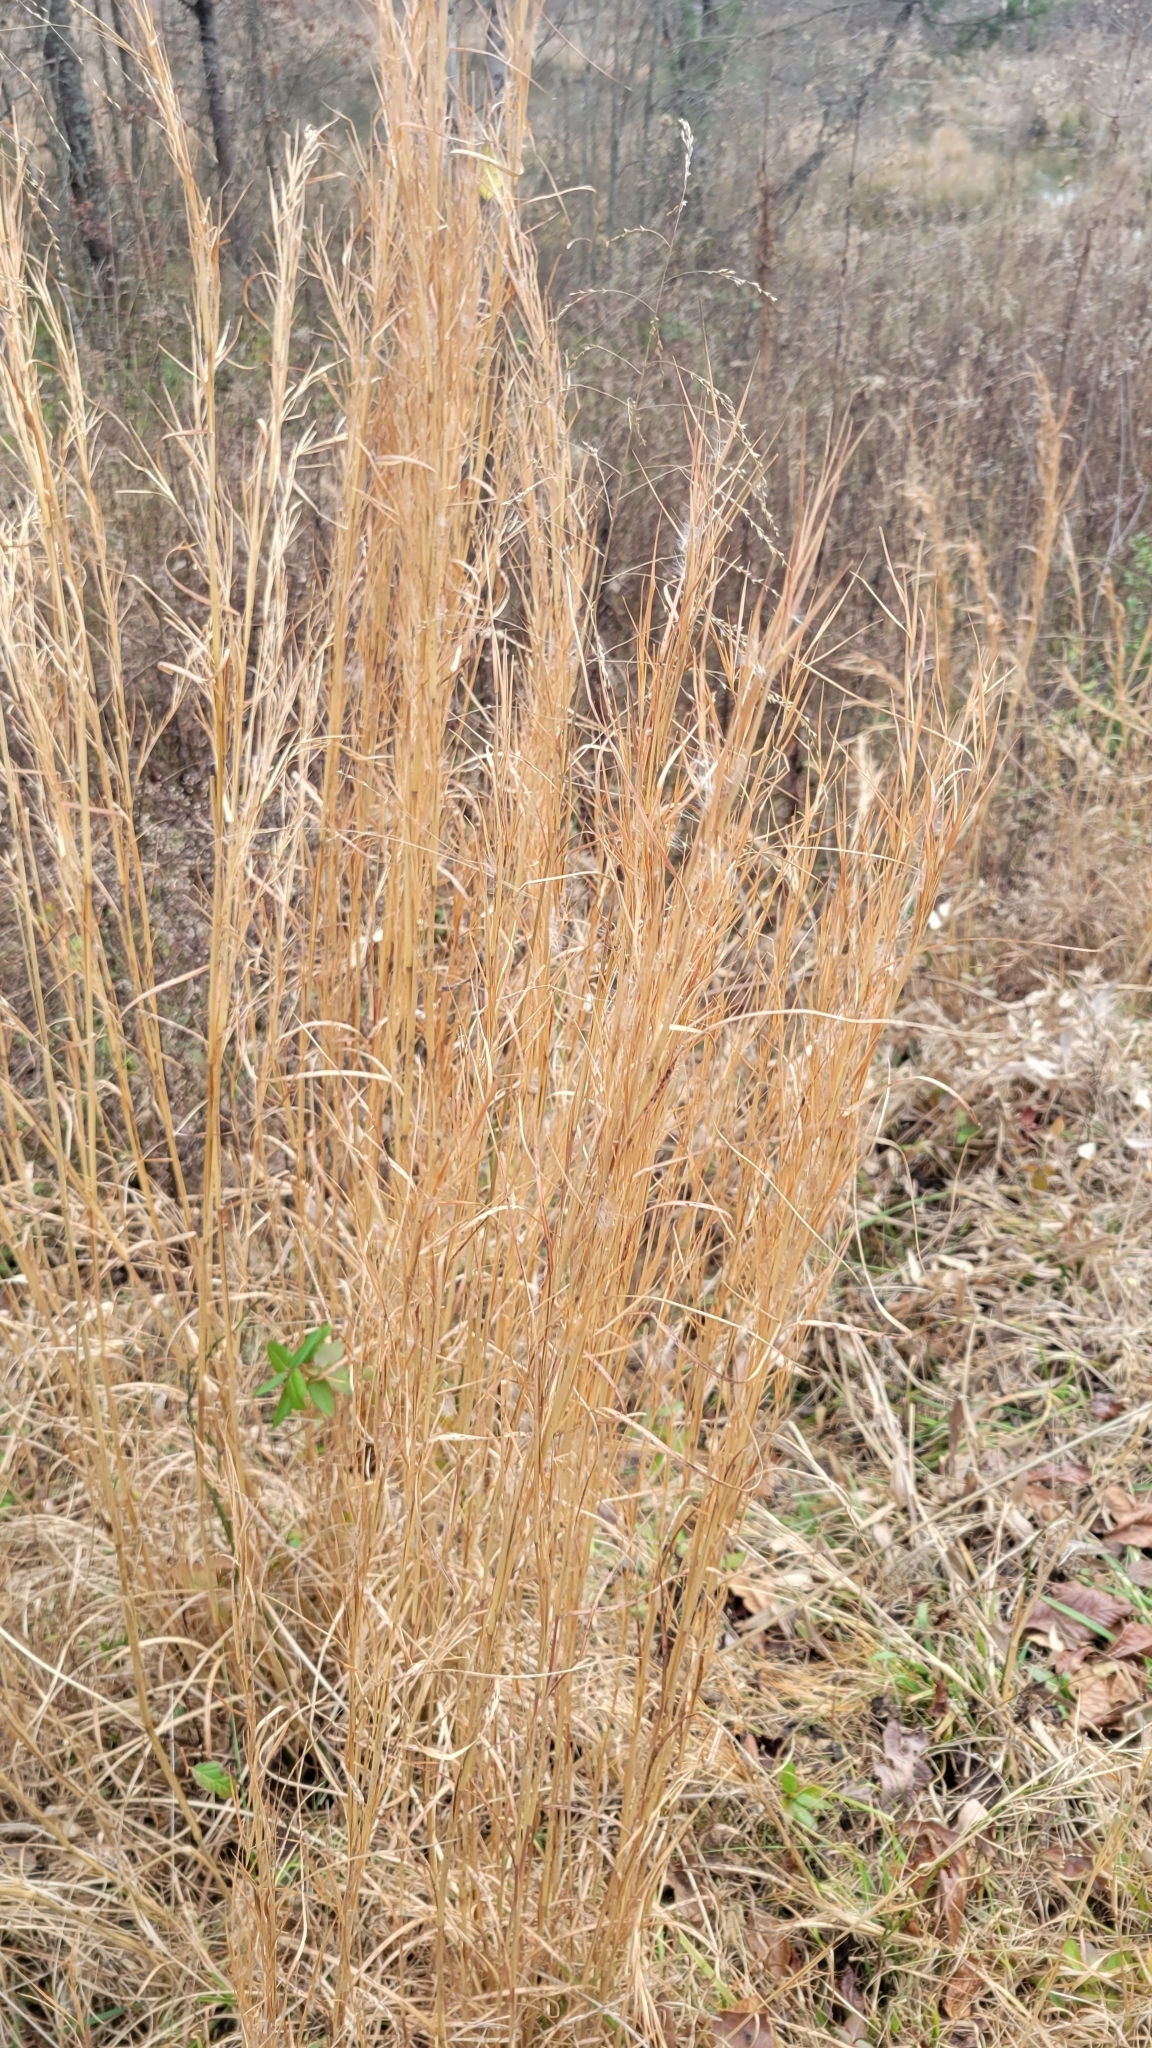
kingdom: Plantae
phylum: Tracheophyta
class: Liliopsida
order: Poales
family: Poaceae
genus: Andropogon
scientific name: Andropogon virginicus
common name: Broomsedge bluestem
